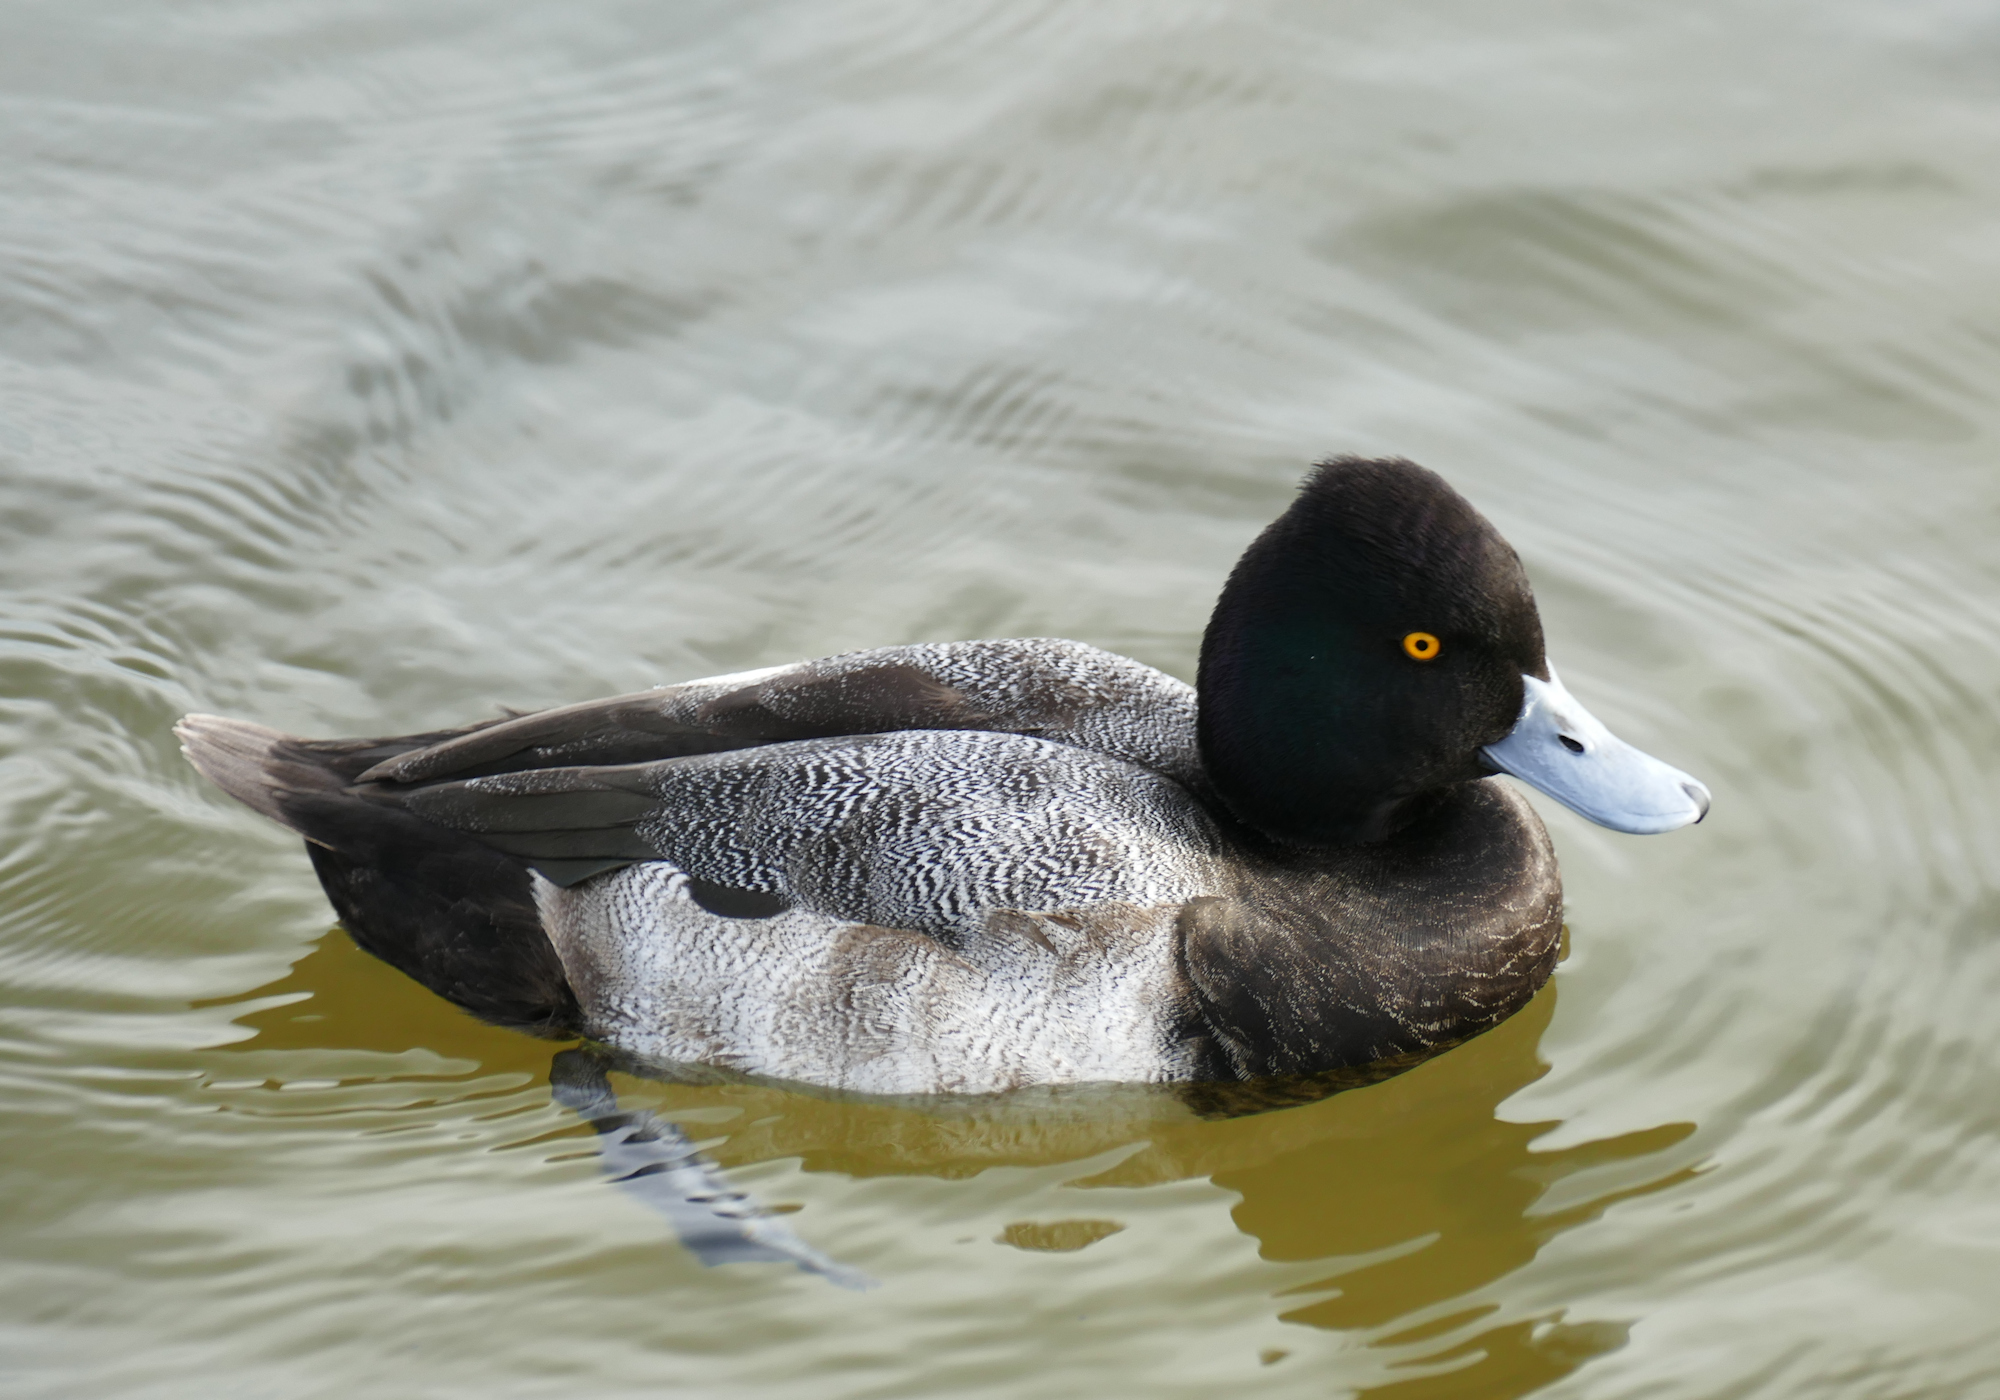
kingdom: Animalia
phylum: Chordata
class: Aves
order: Anseriformes
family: Anatidae
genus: Aythya
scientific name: Aythya affinis
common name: Lesser scaup
